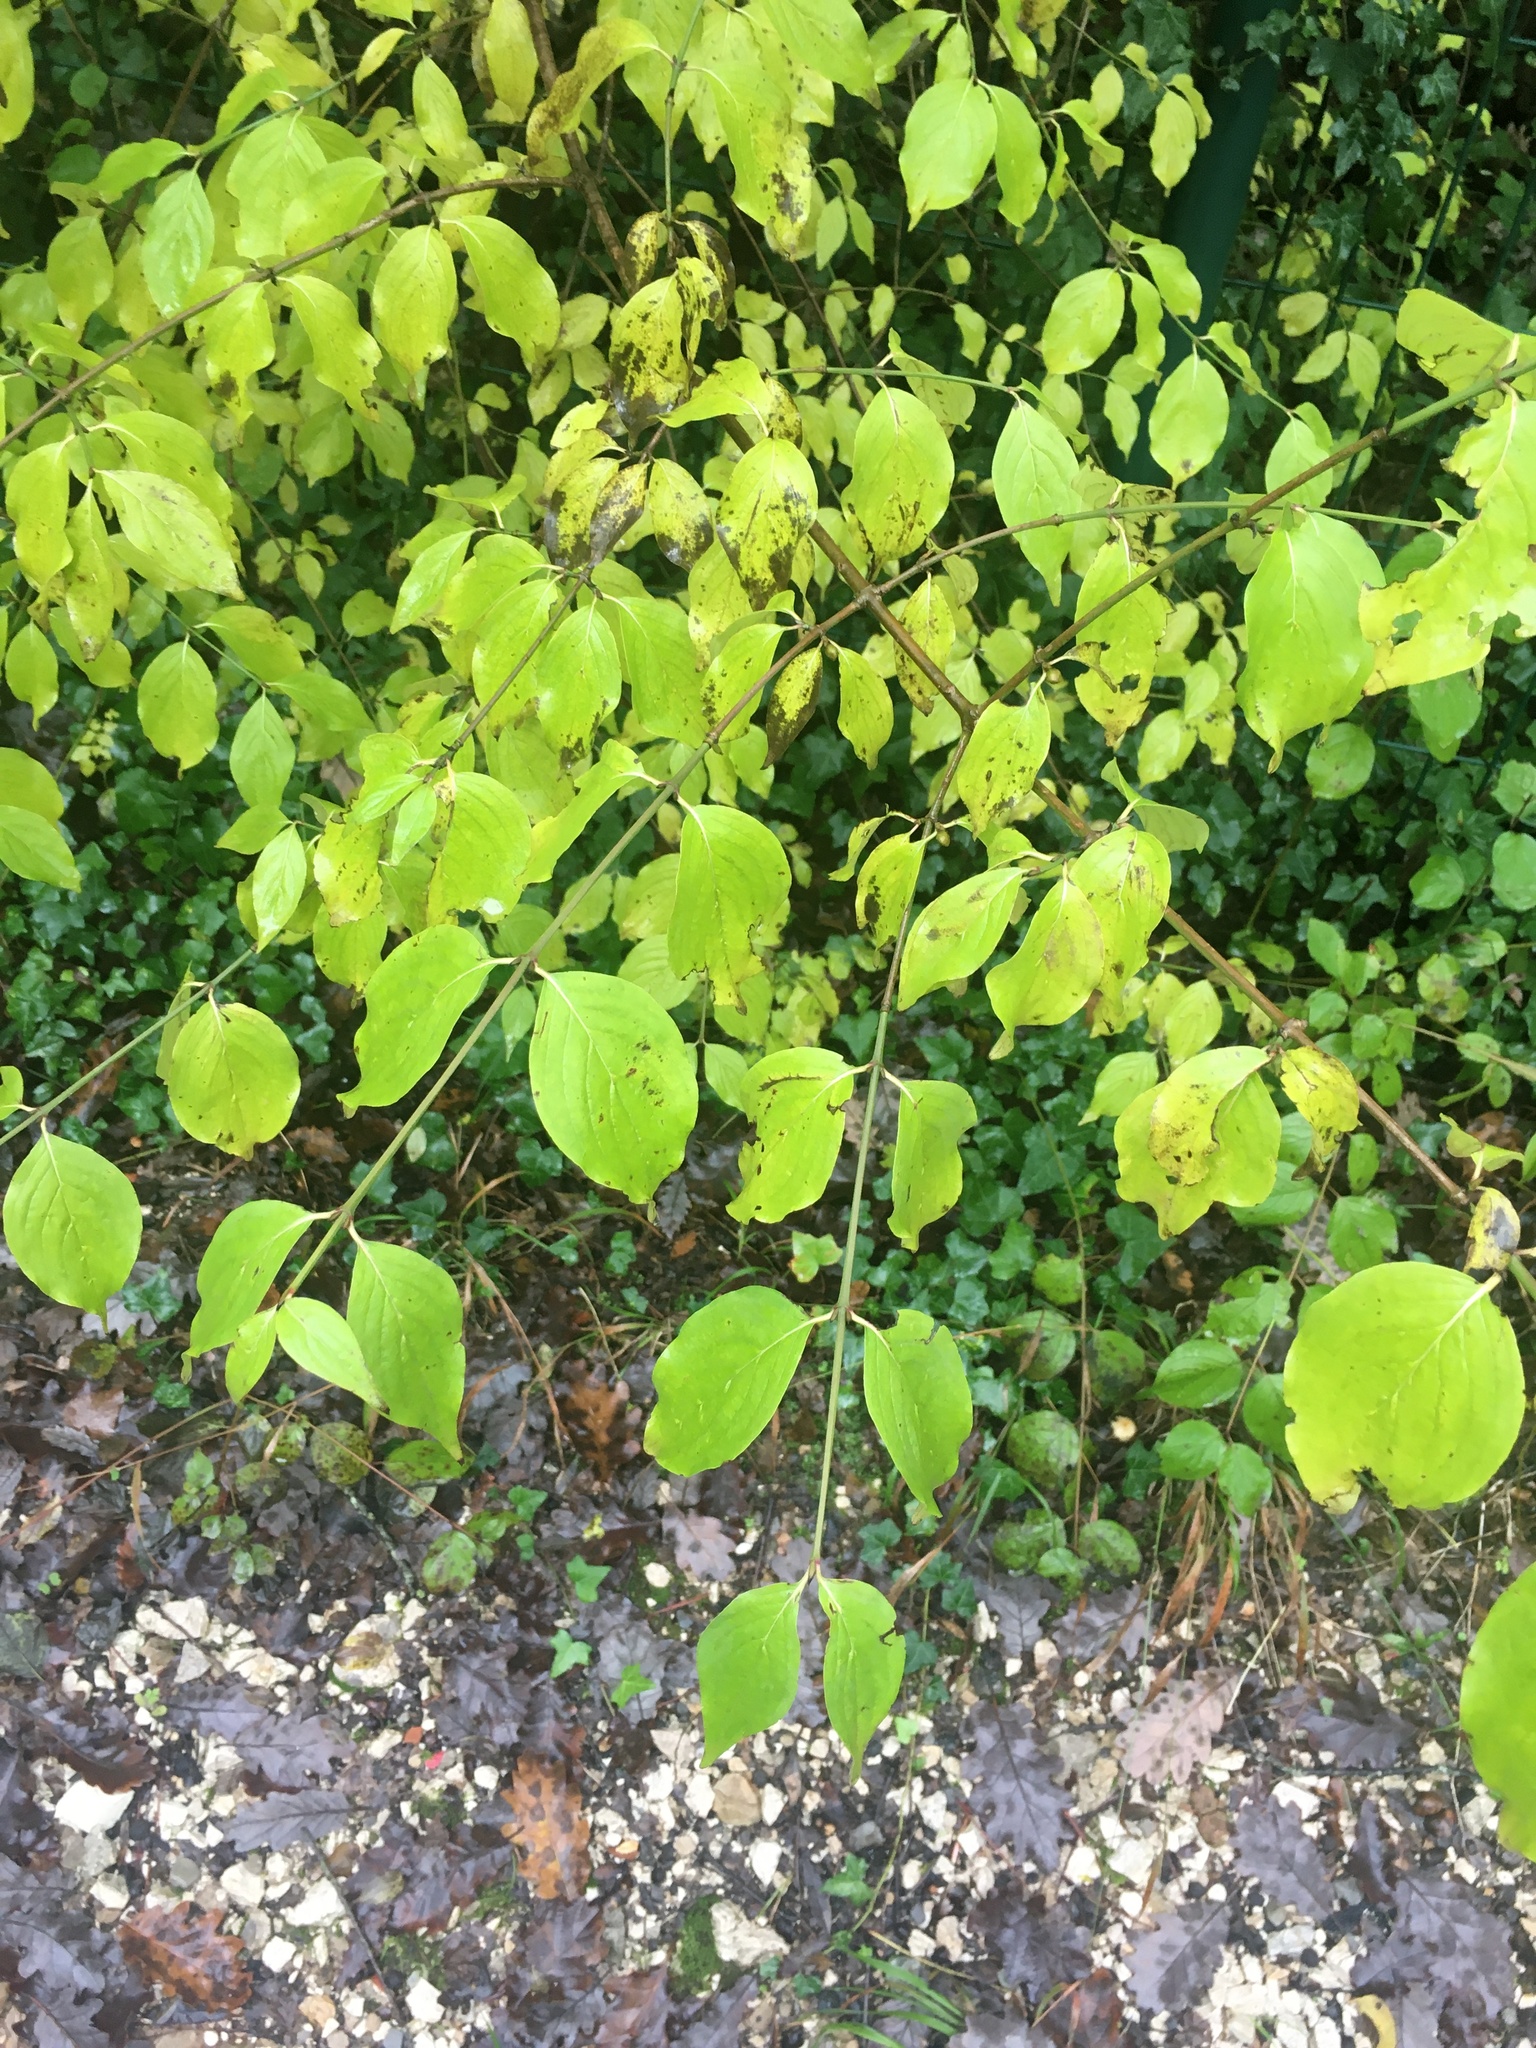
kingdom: Plantae
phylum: Tracheophyta
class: Magnoliopsida
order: Cornales
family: Cornaceae
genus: Cornus
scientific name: Cornus sanguinea
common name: Dogwood
